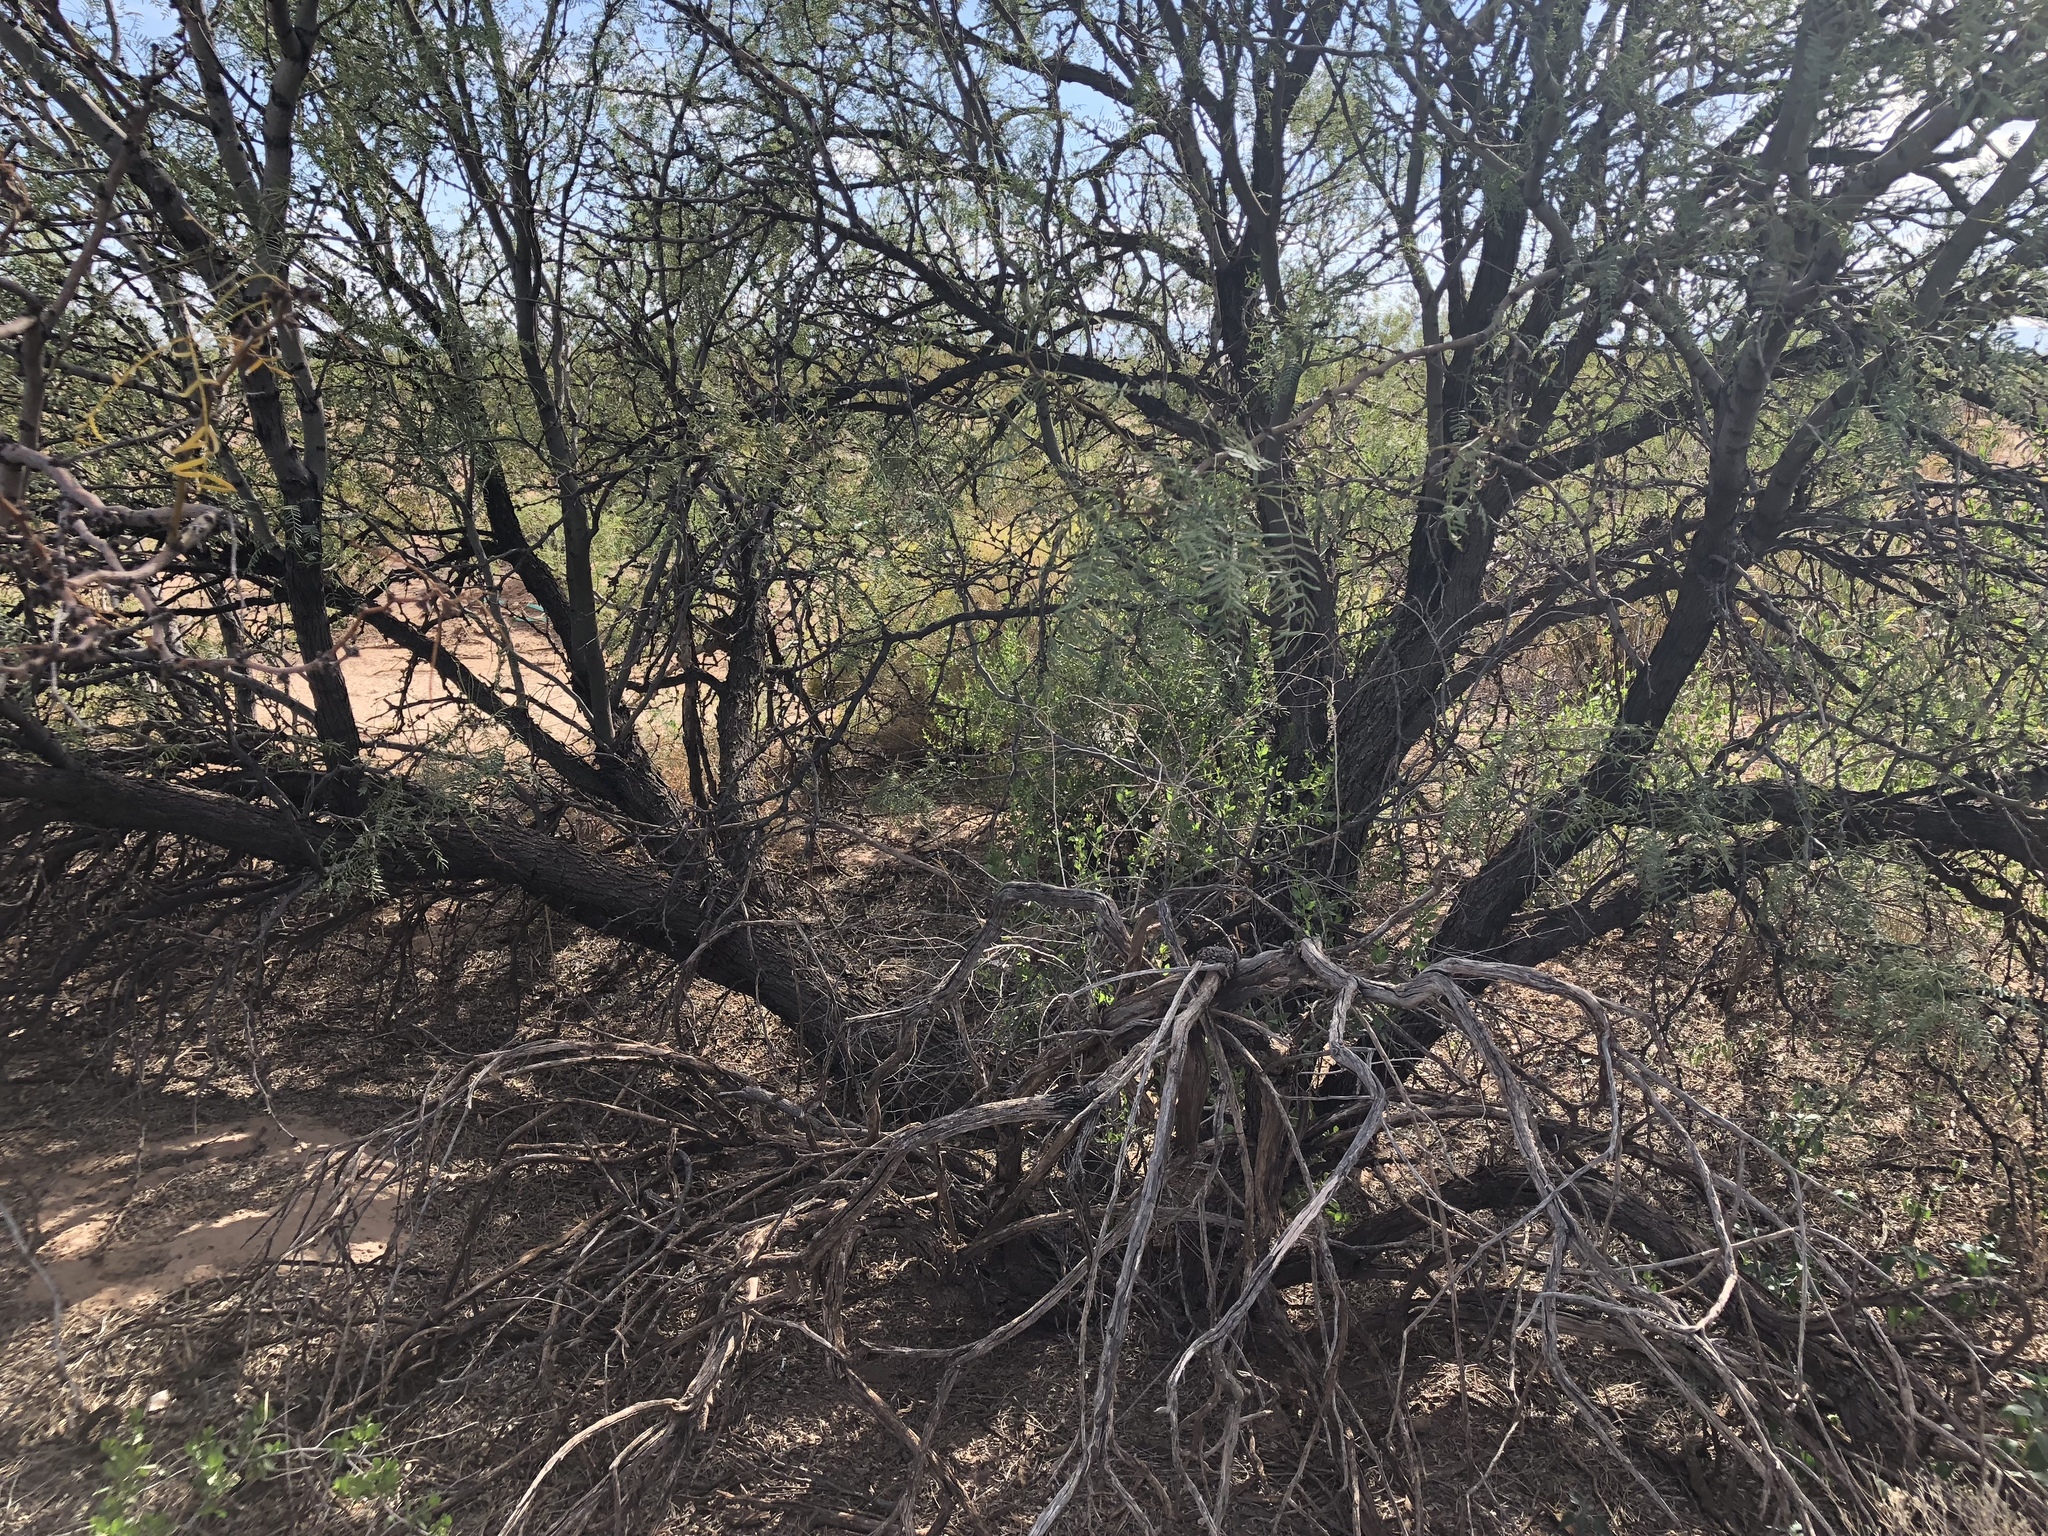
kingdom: Plantae
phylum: Tracheophyta
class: Magnoliopsida
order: Fabales
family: Fabaceae
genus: Prosopis
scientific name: Prosopis glandulosa
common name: Honey mesquite
